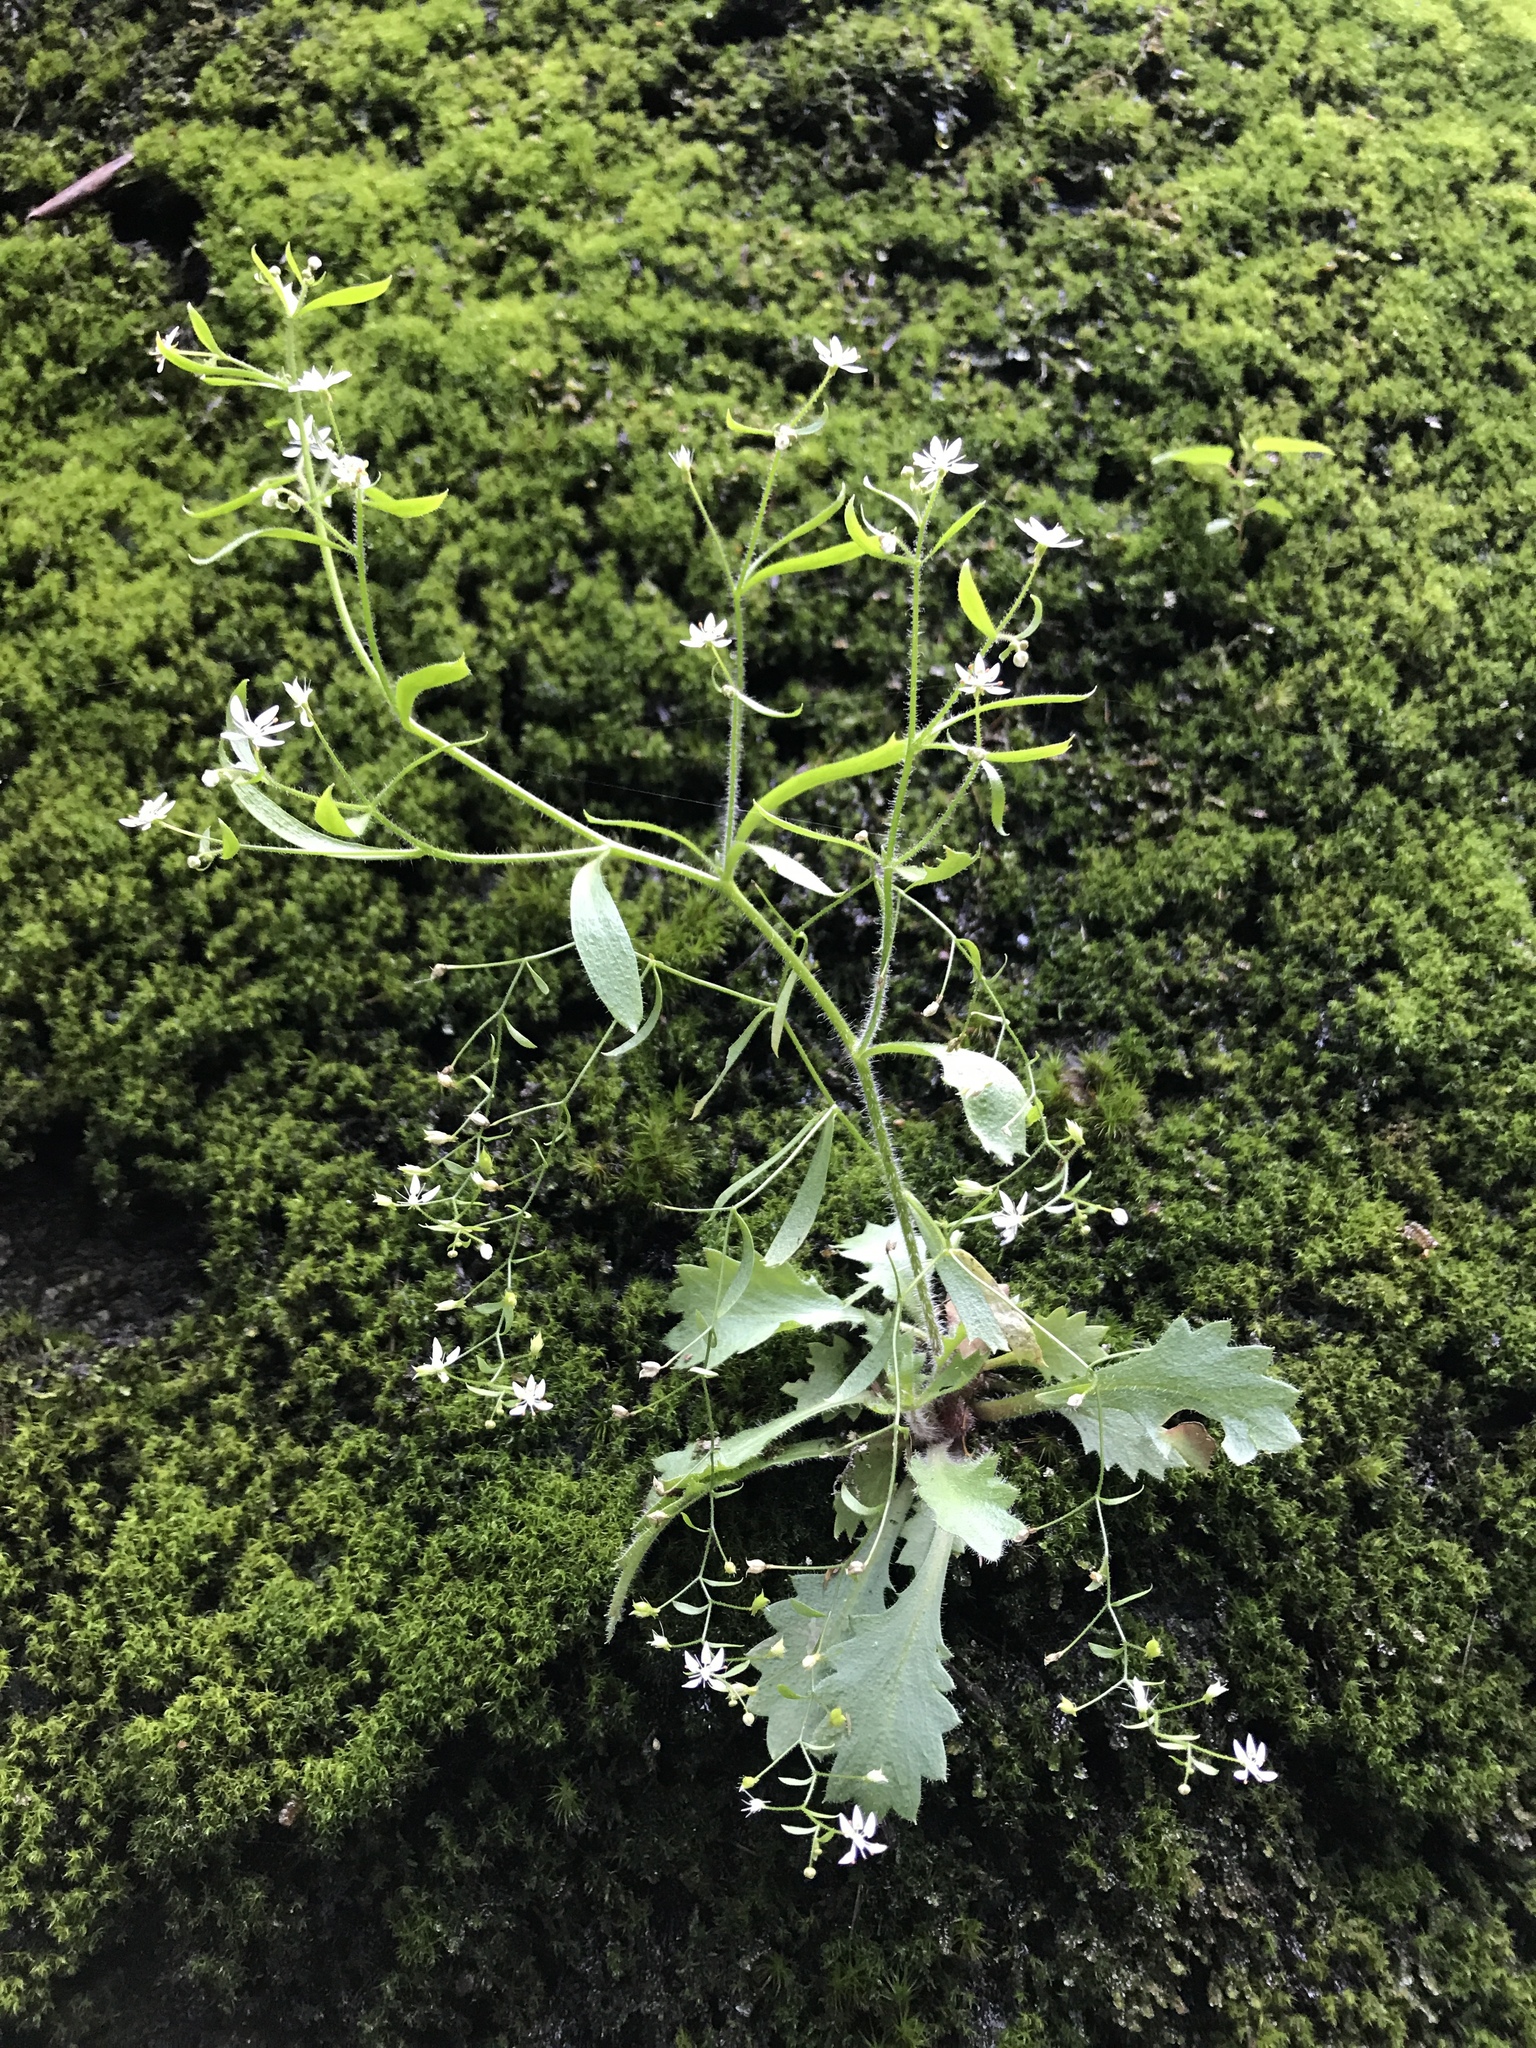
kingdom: Plantae
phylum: Tracheophyta
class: Magnoliopsida
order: Saxifragales
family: Saxifragaceae
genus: Micranthes
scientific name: Micranthes petiolaris
